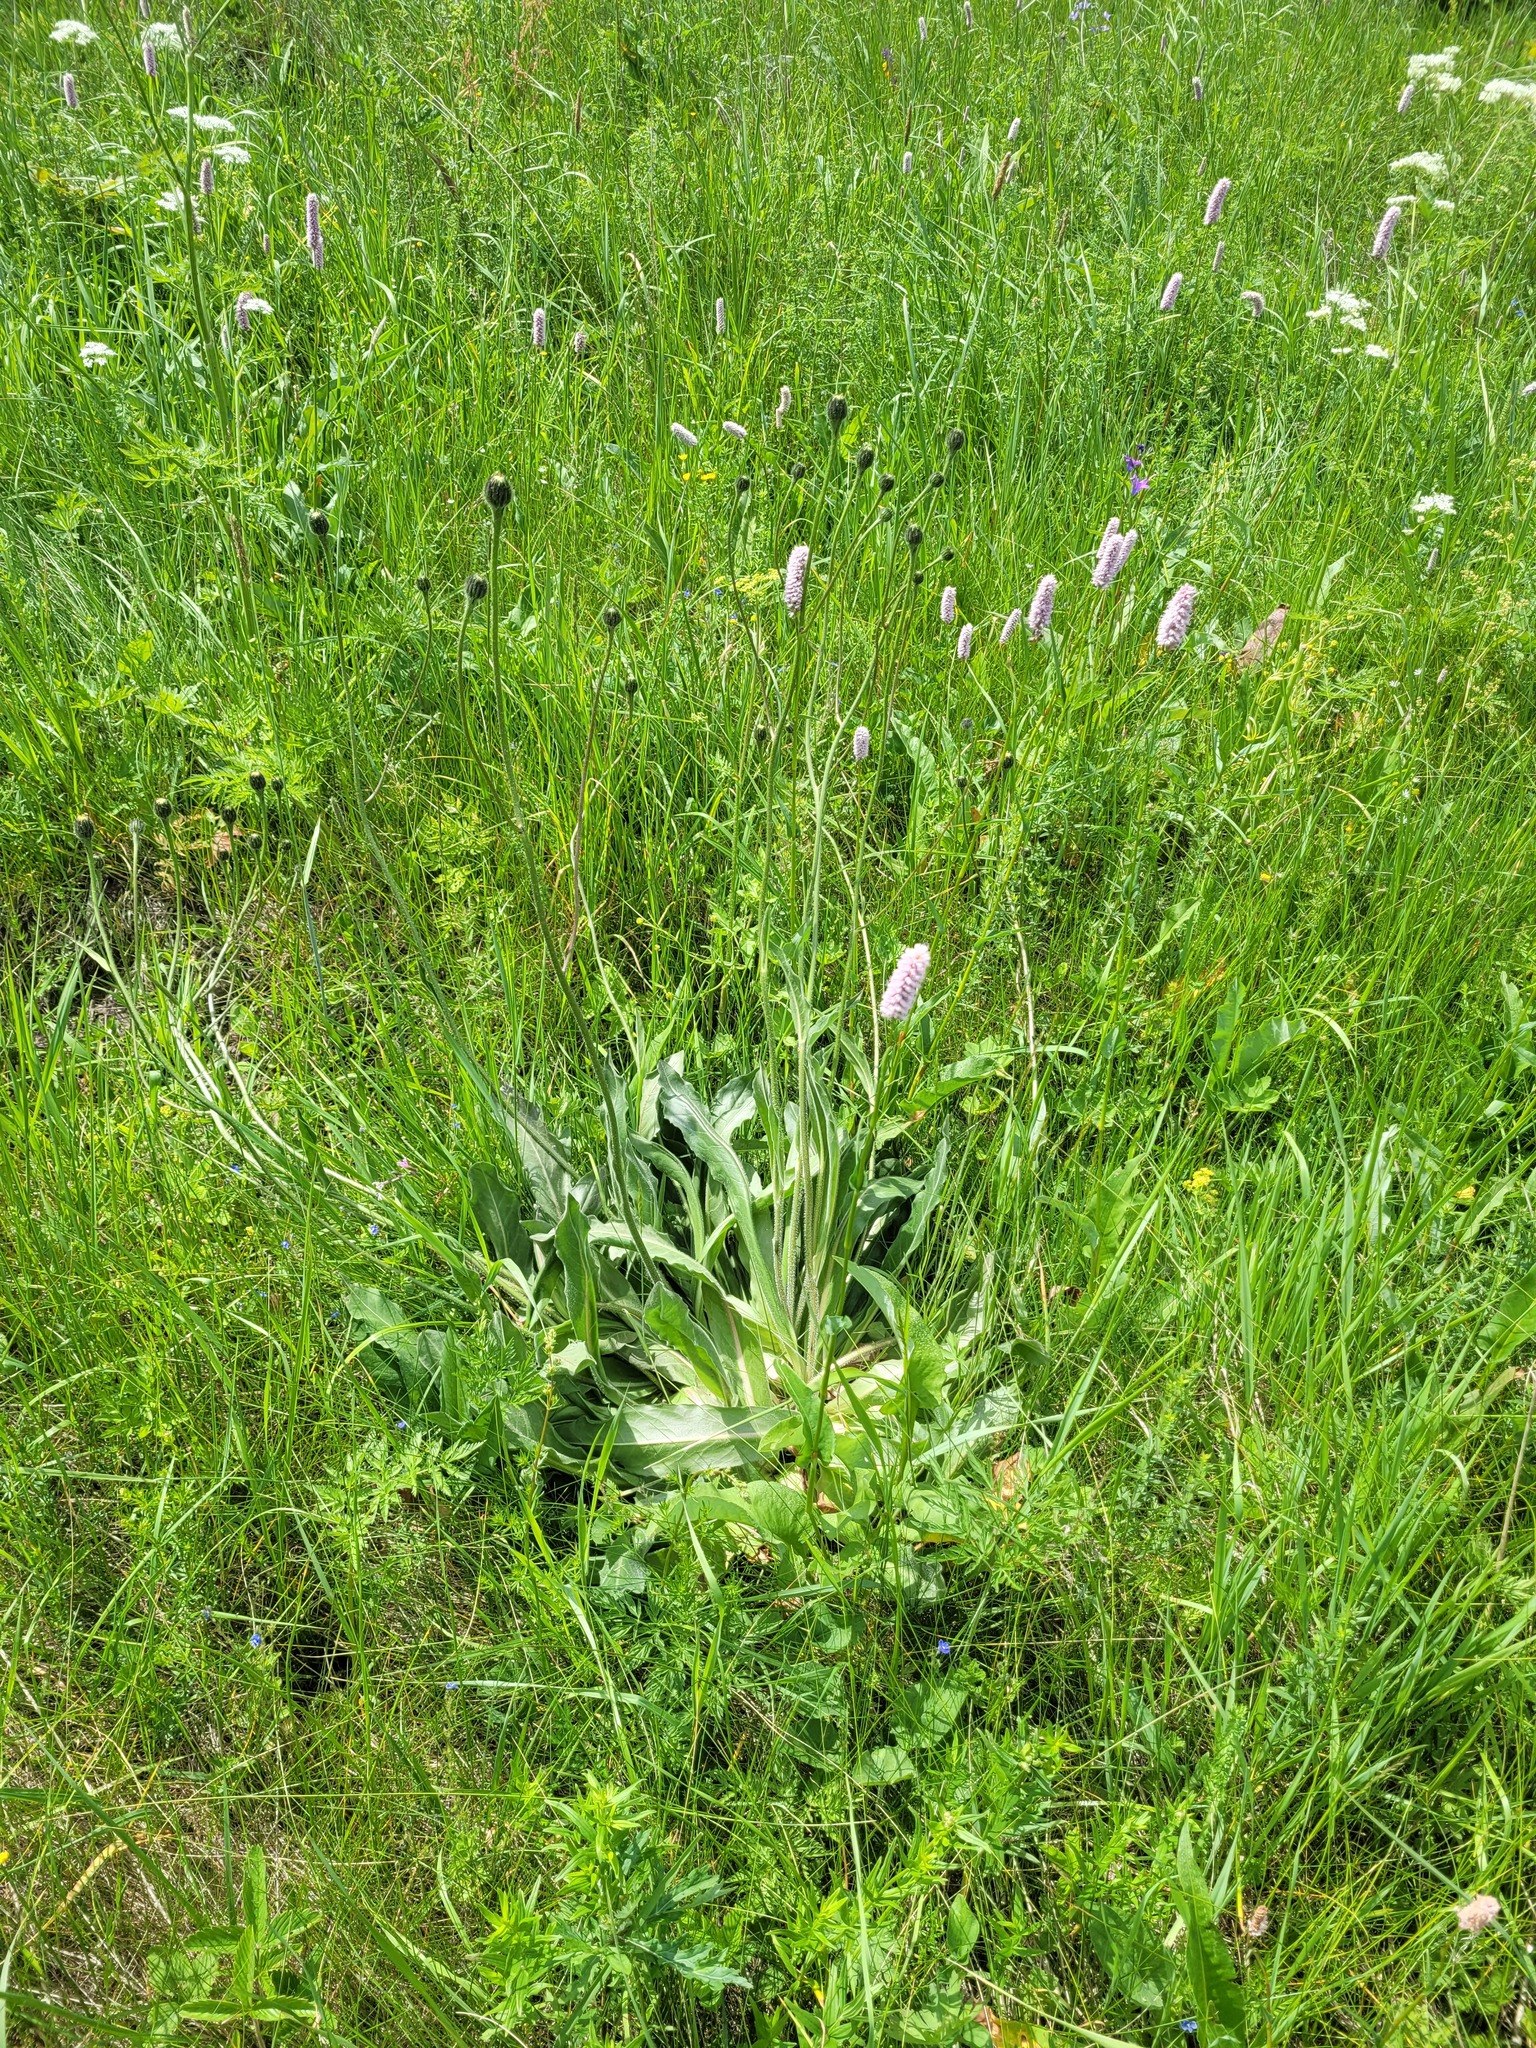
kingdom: Plantae
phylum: Tracheophyta
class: Magnoliopsida
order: Asterales
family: Asteraceae
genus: Trommsdorffia
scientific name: Trommsdorffia maculata
